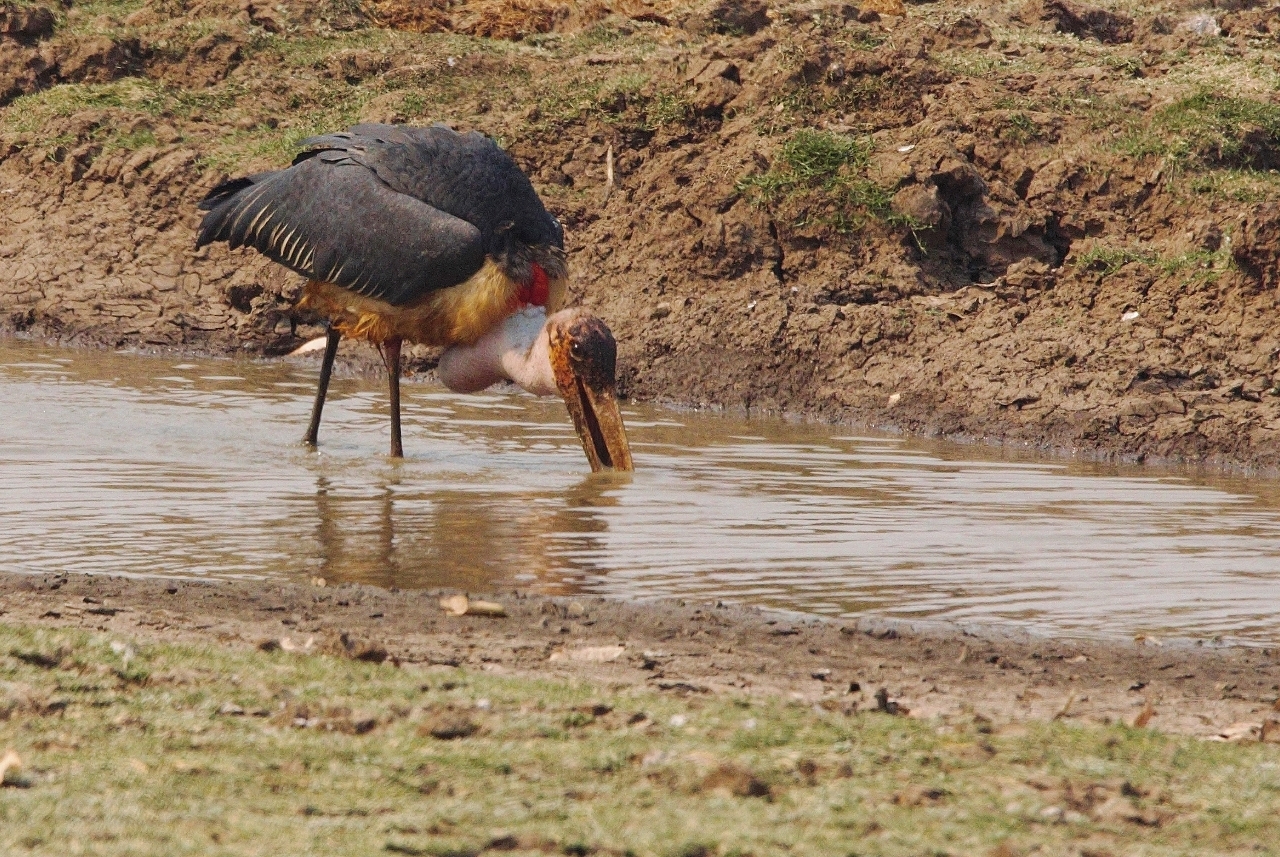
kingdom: Animalia
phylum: Chordata
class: Aves
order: Ciconiiformes
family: Ciconiidae
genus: Leptoptilos
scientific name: Leptoptilos crumenifer
